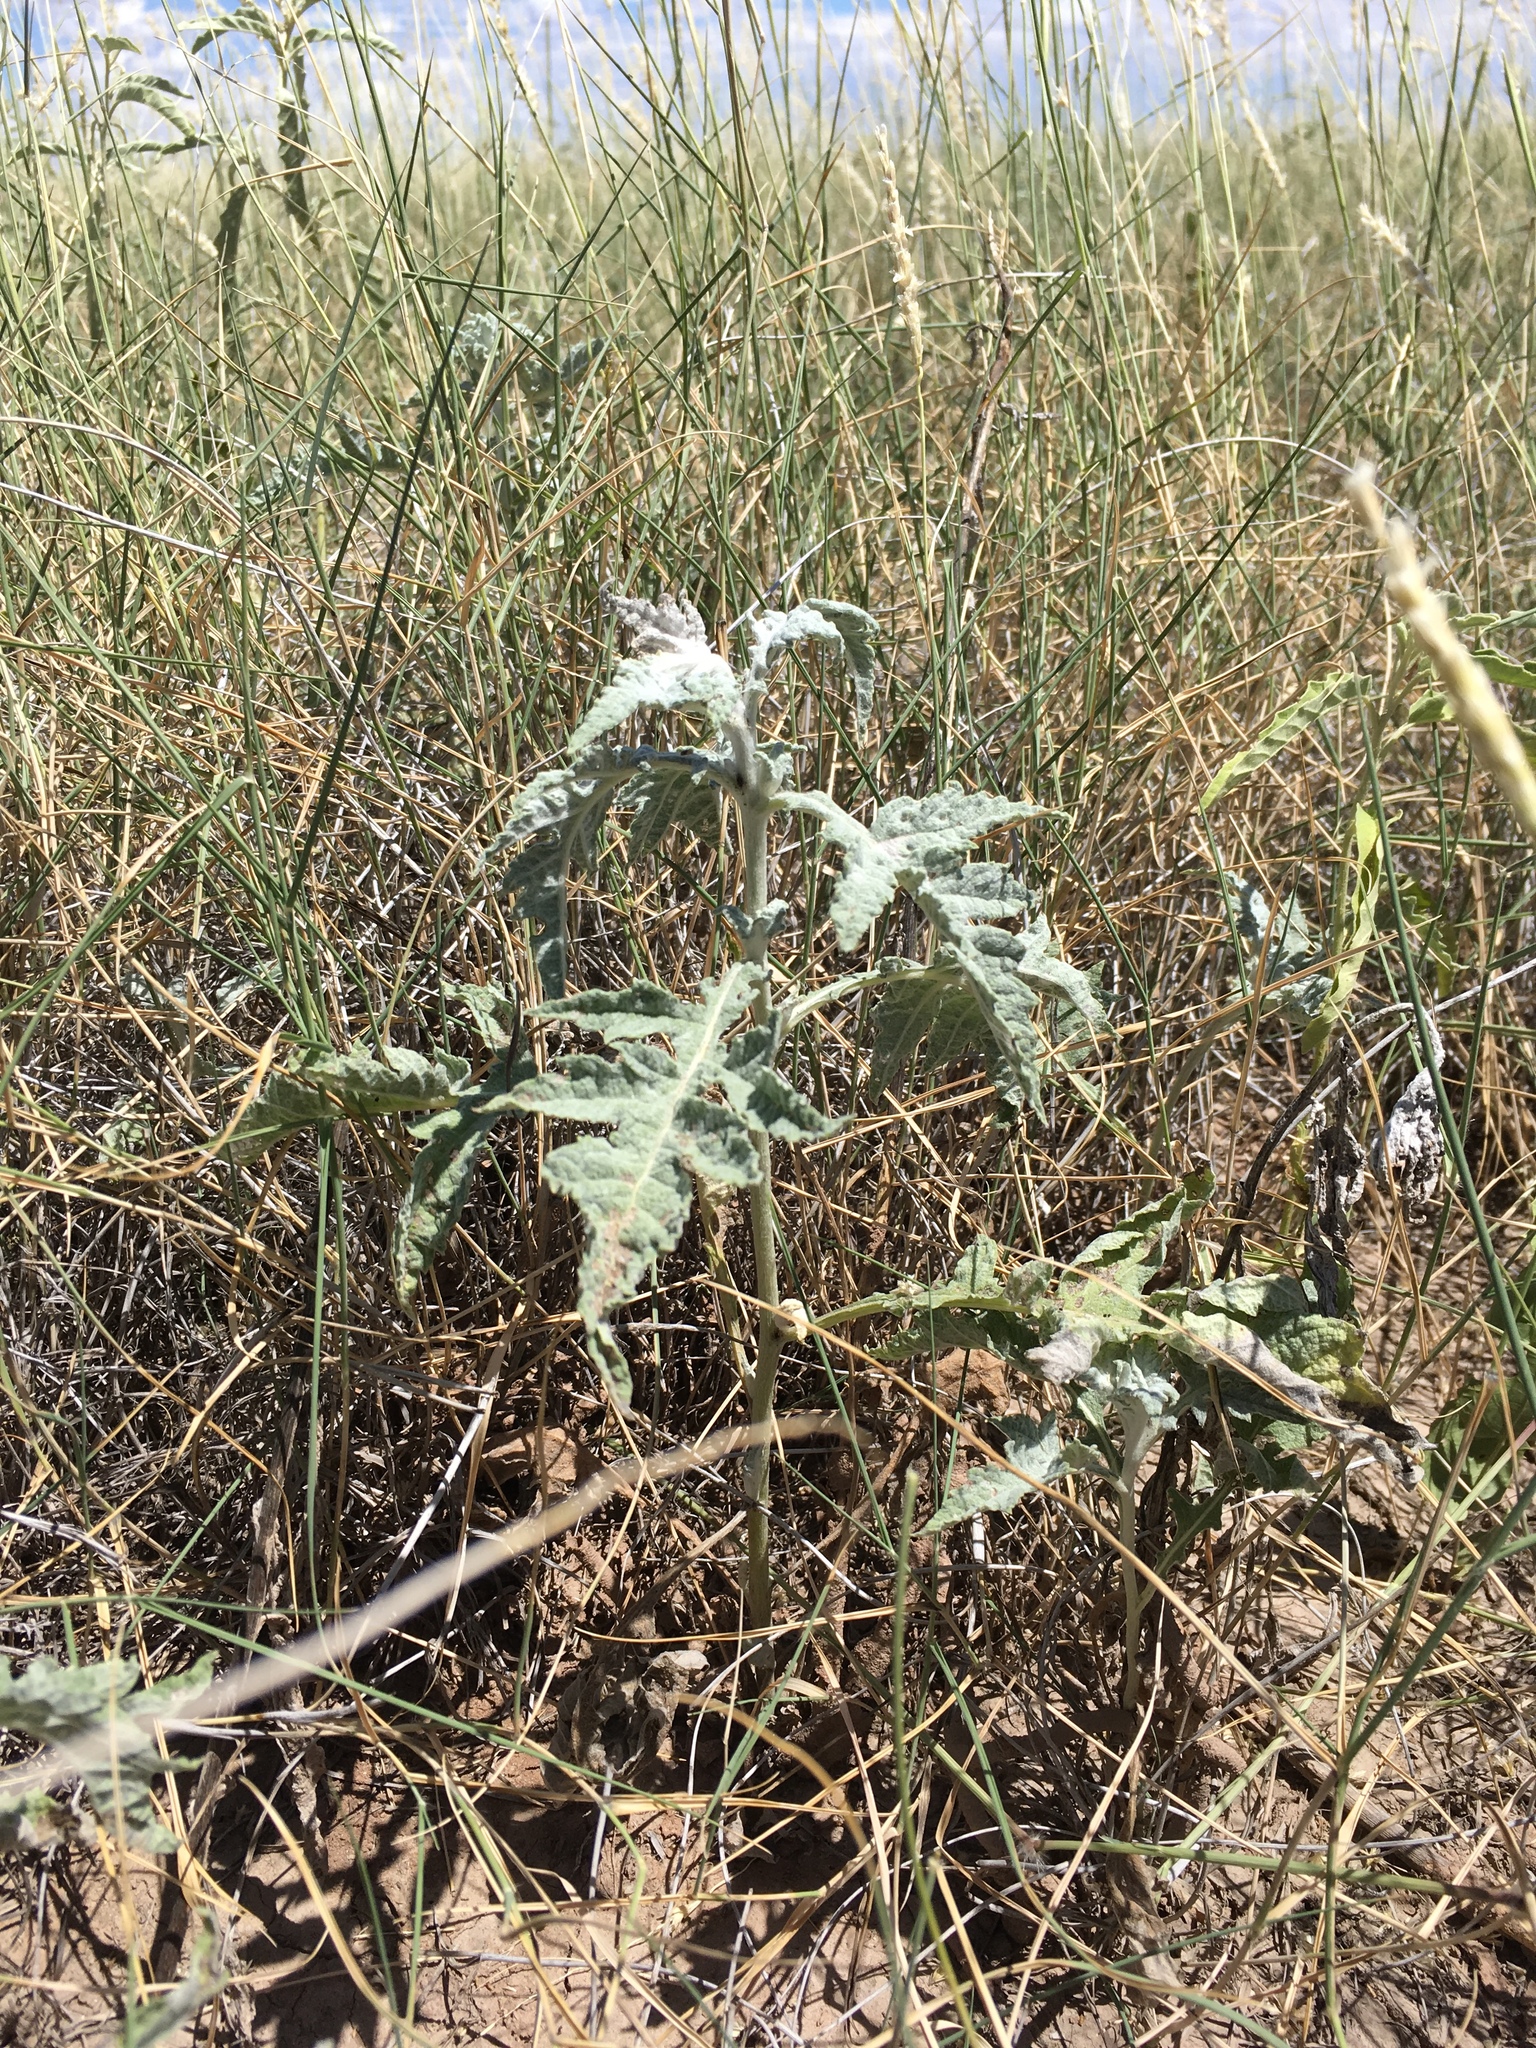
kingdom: Plantae
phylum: Tracheophyta
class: Magnoliopsida
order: Asterales
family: Asteraceae
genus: Euphrosyne
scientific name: Euphrosyne dealbata
